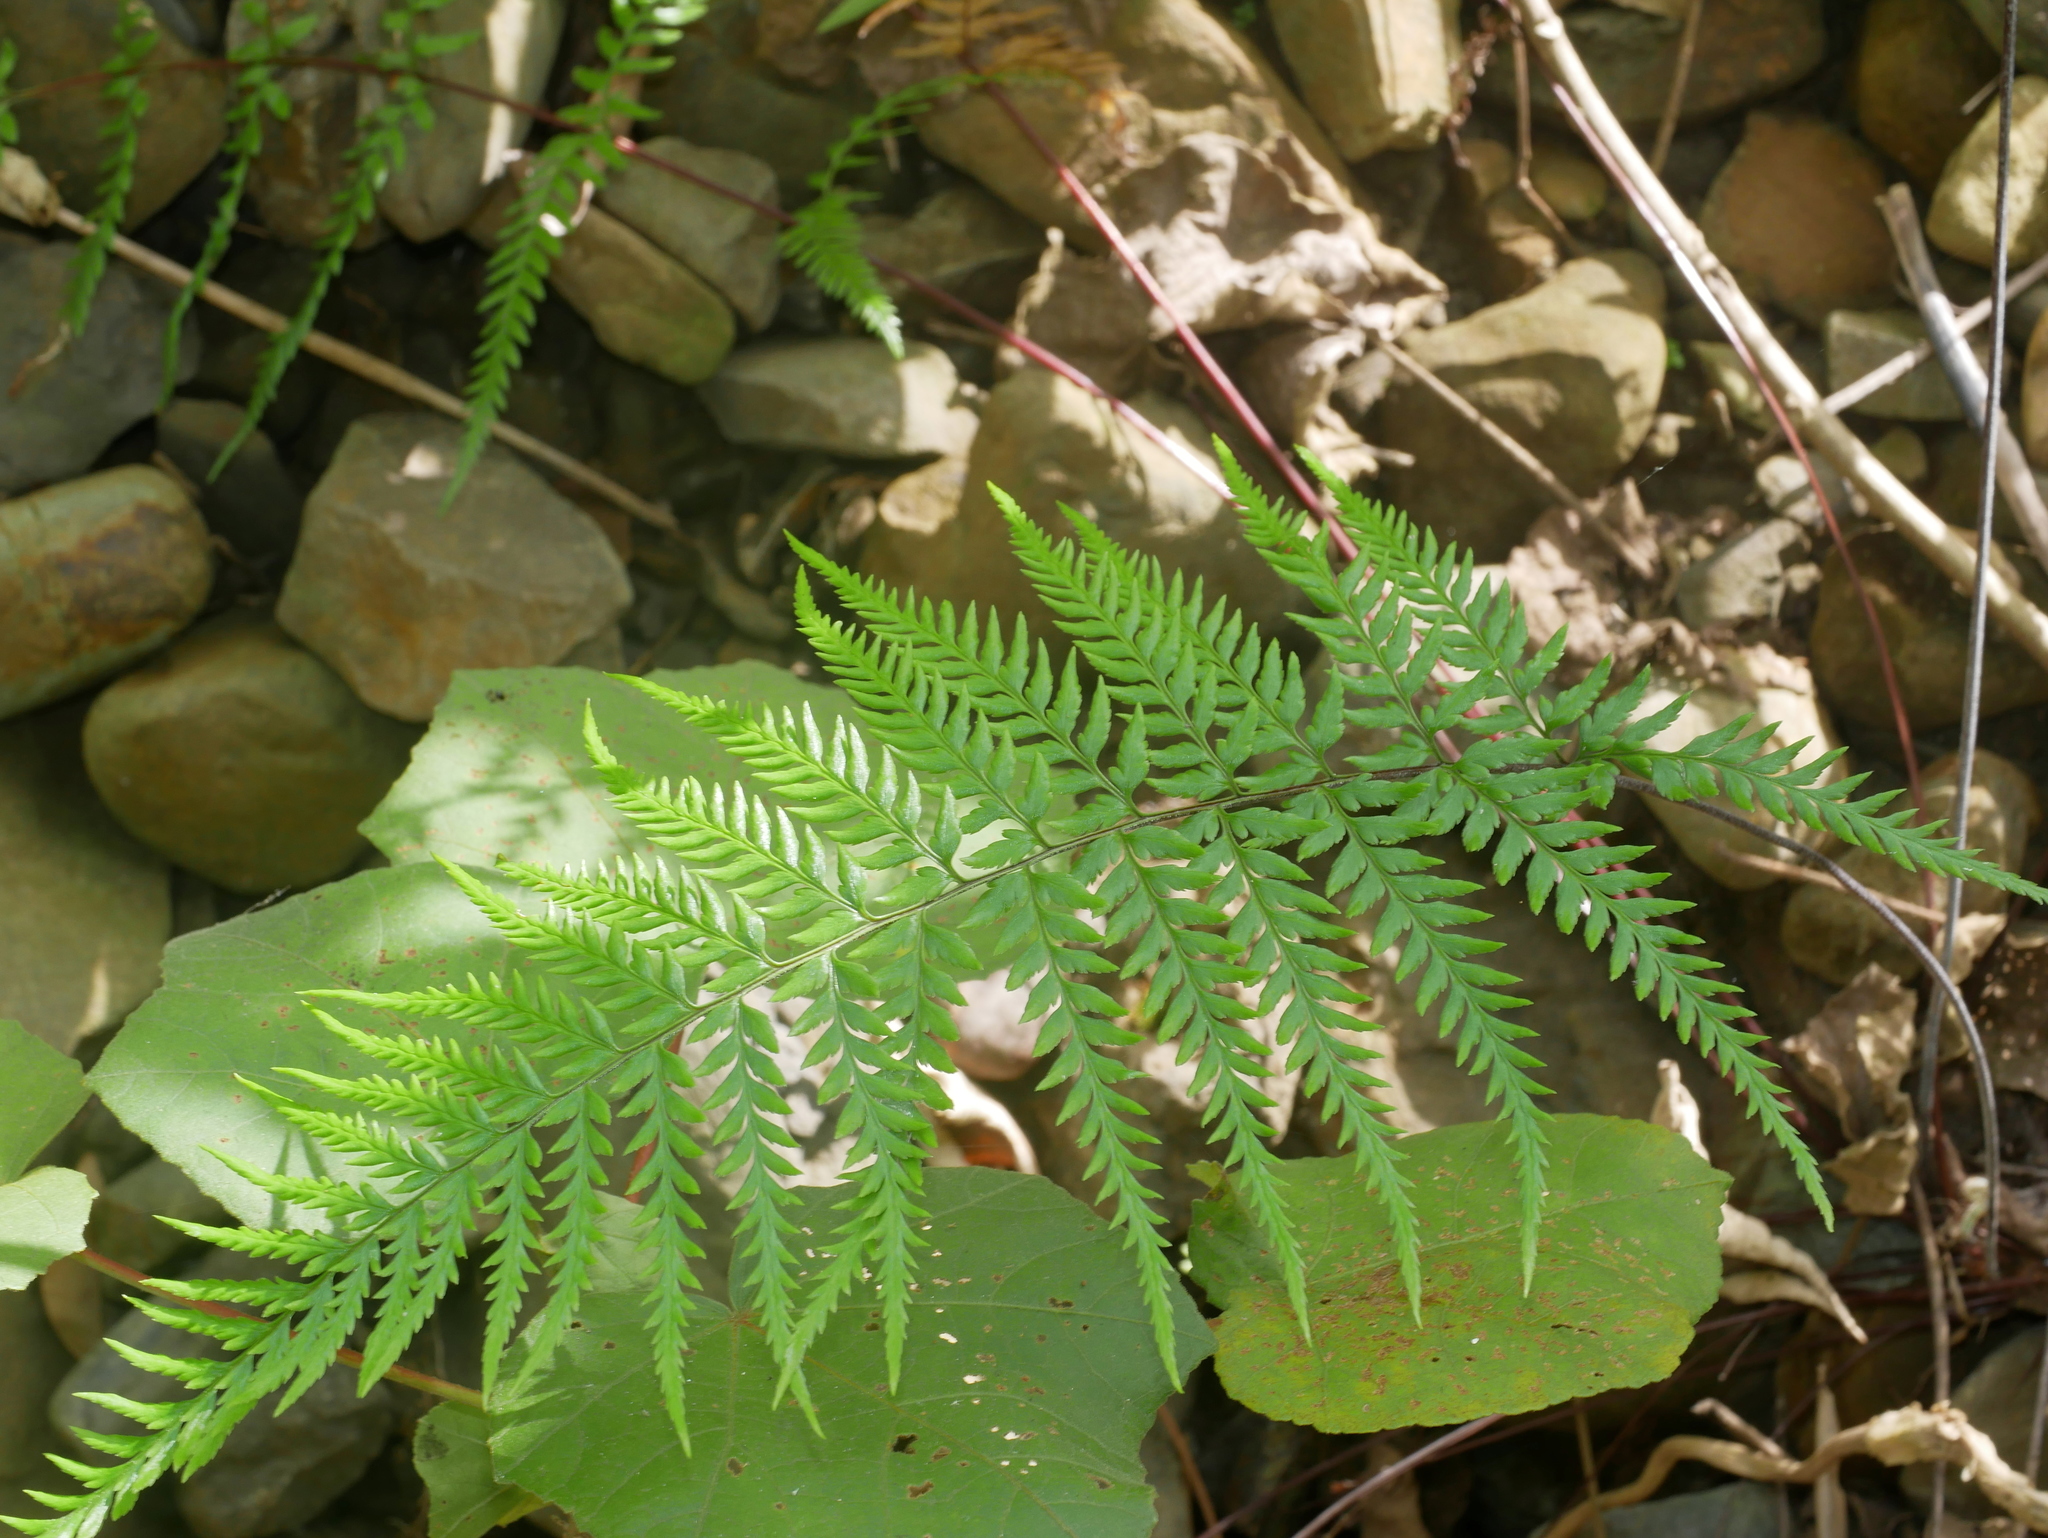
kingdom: Plantae
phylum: Tracheophyta
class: Polypodiopsida
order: Polypodiales
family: Pteridaceae
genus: Pityrogramma
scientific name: Pityrogramma calomelanos
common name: Dixie silverback fern
